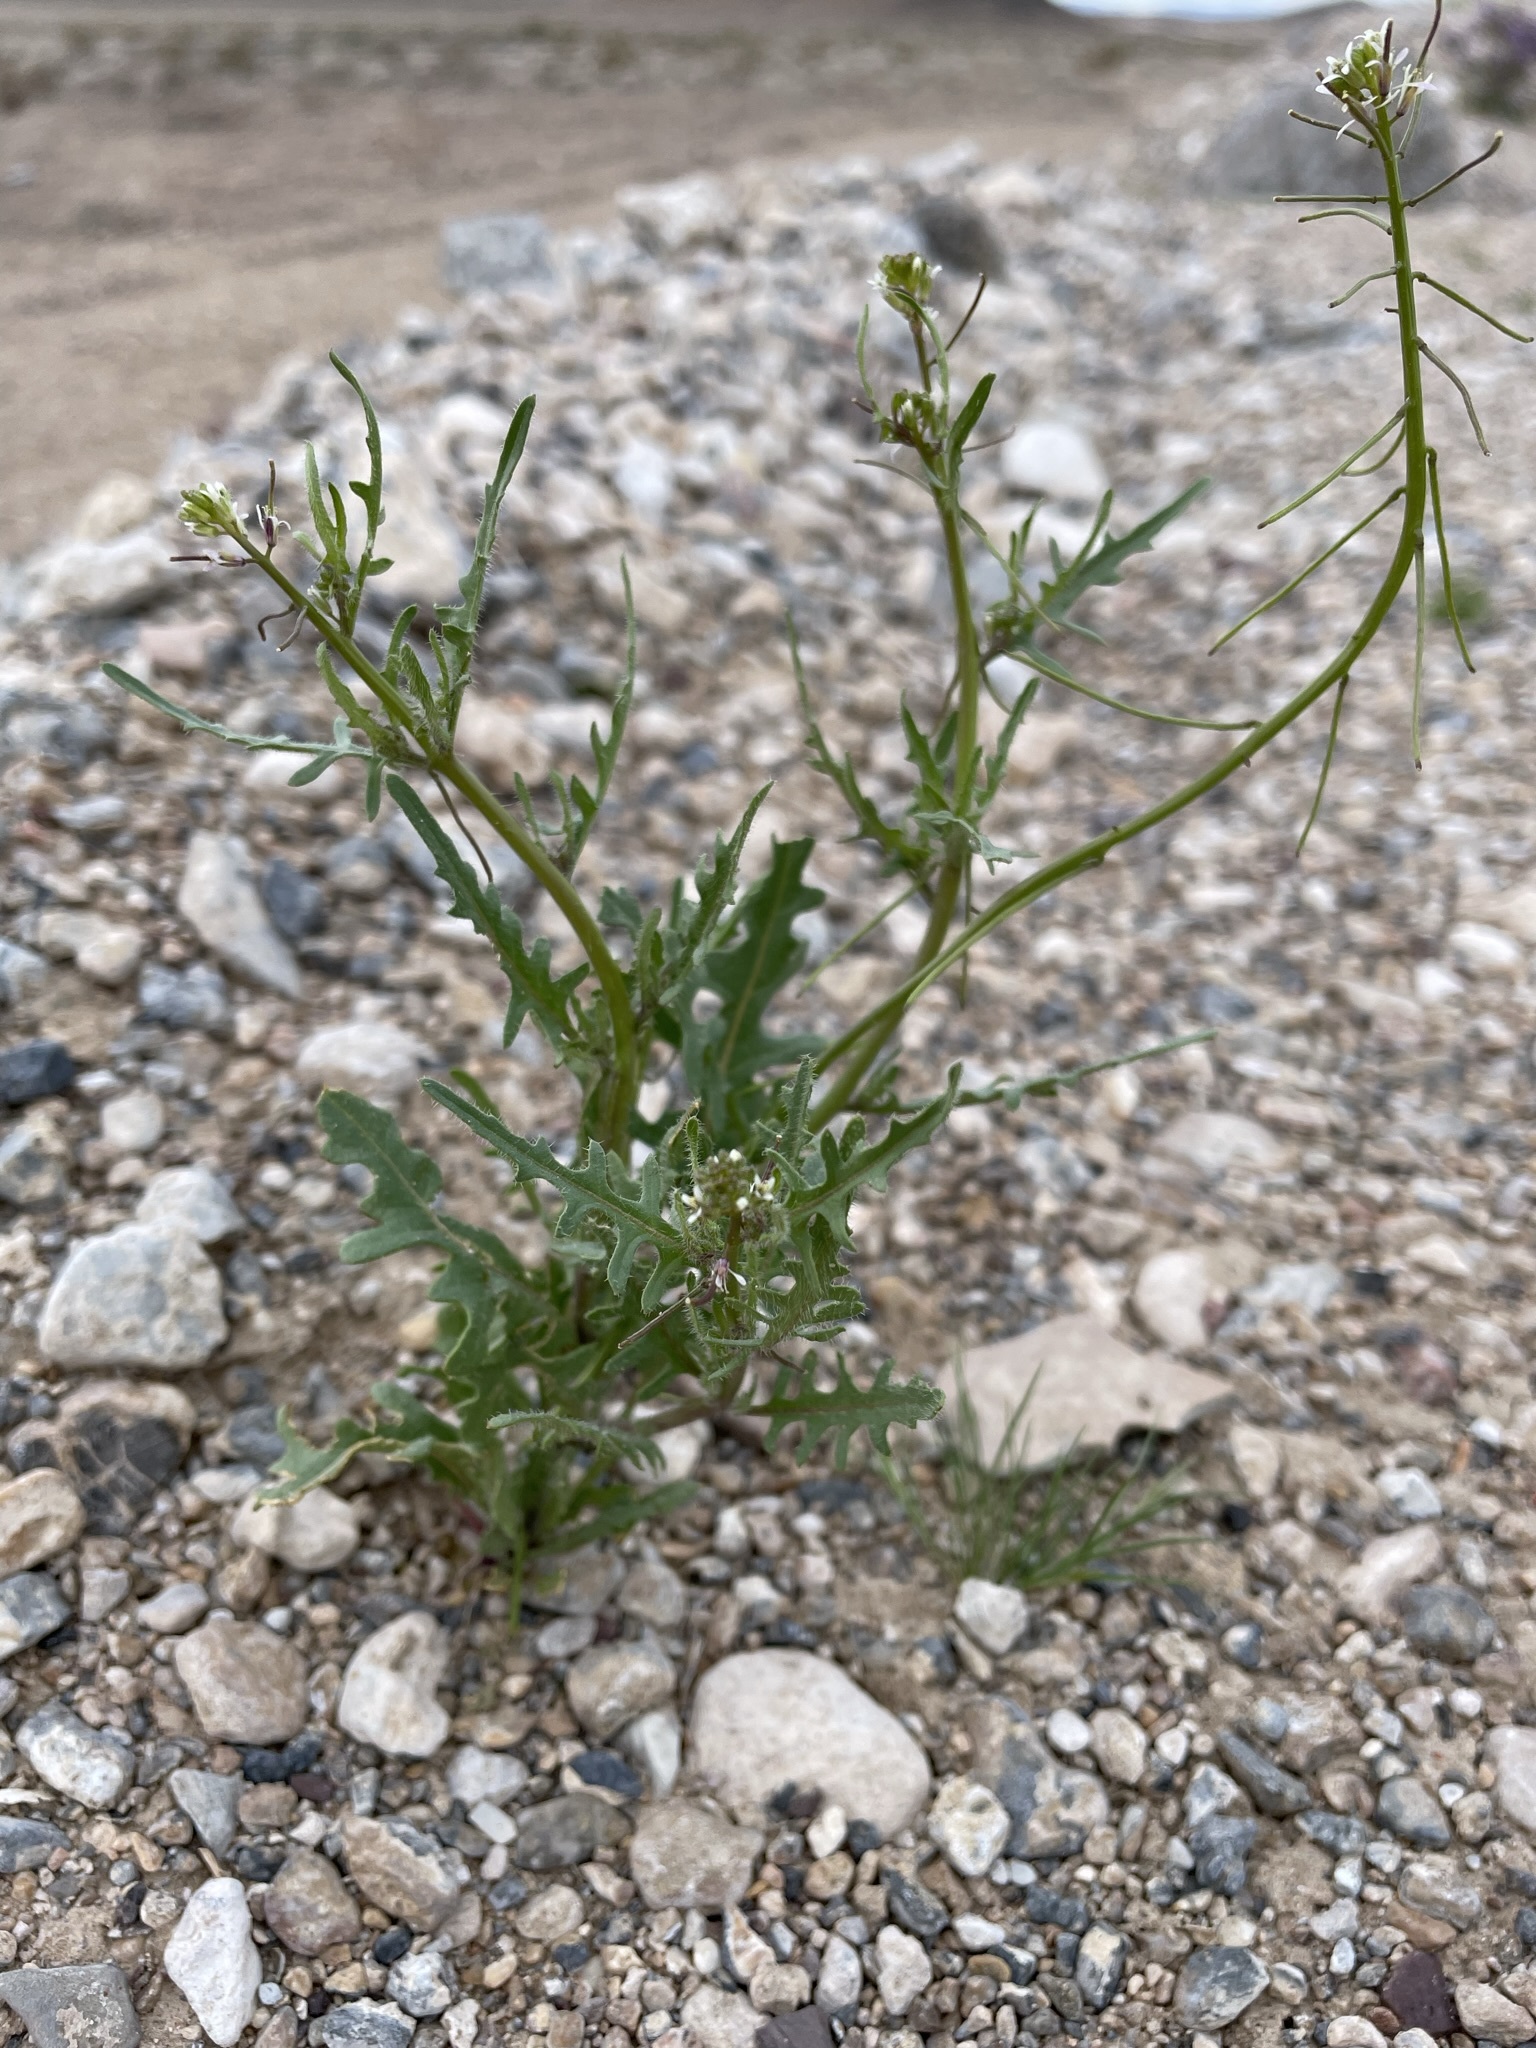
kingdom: Plantae
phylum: Tracheophyta
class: Magnoliopsida
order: Brassicales
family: Brassicaceae
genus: Streptanthus
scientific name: Streptanthus lasiophyllus
